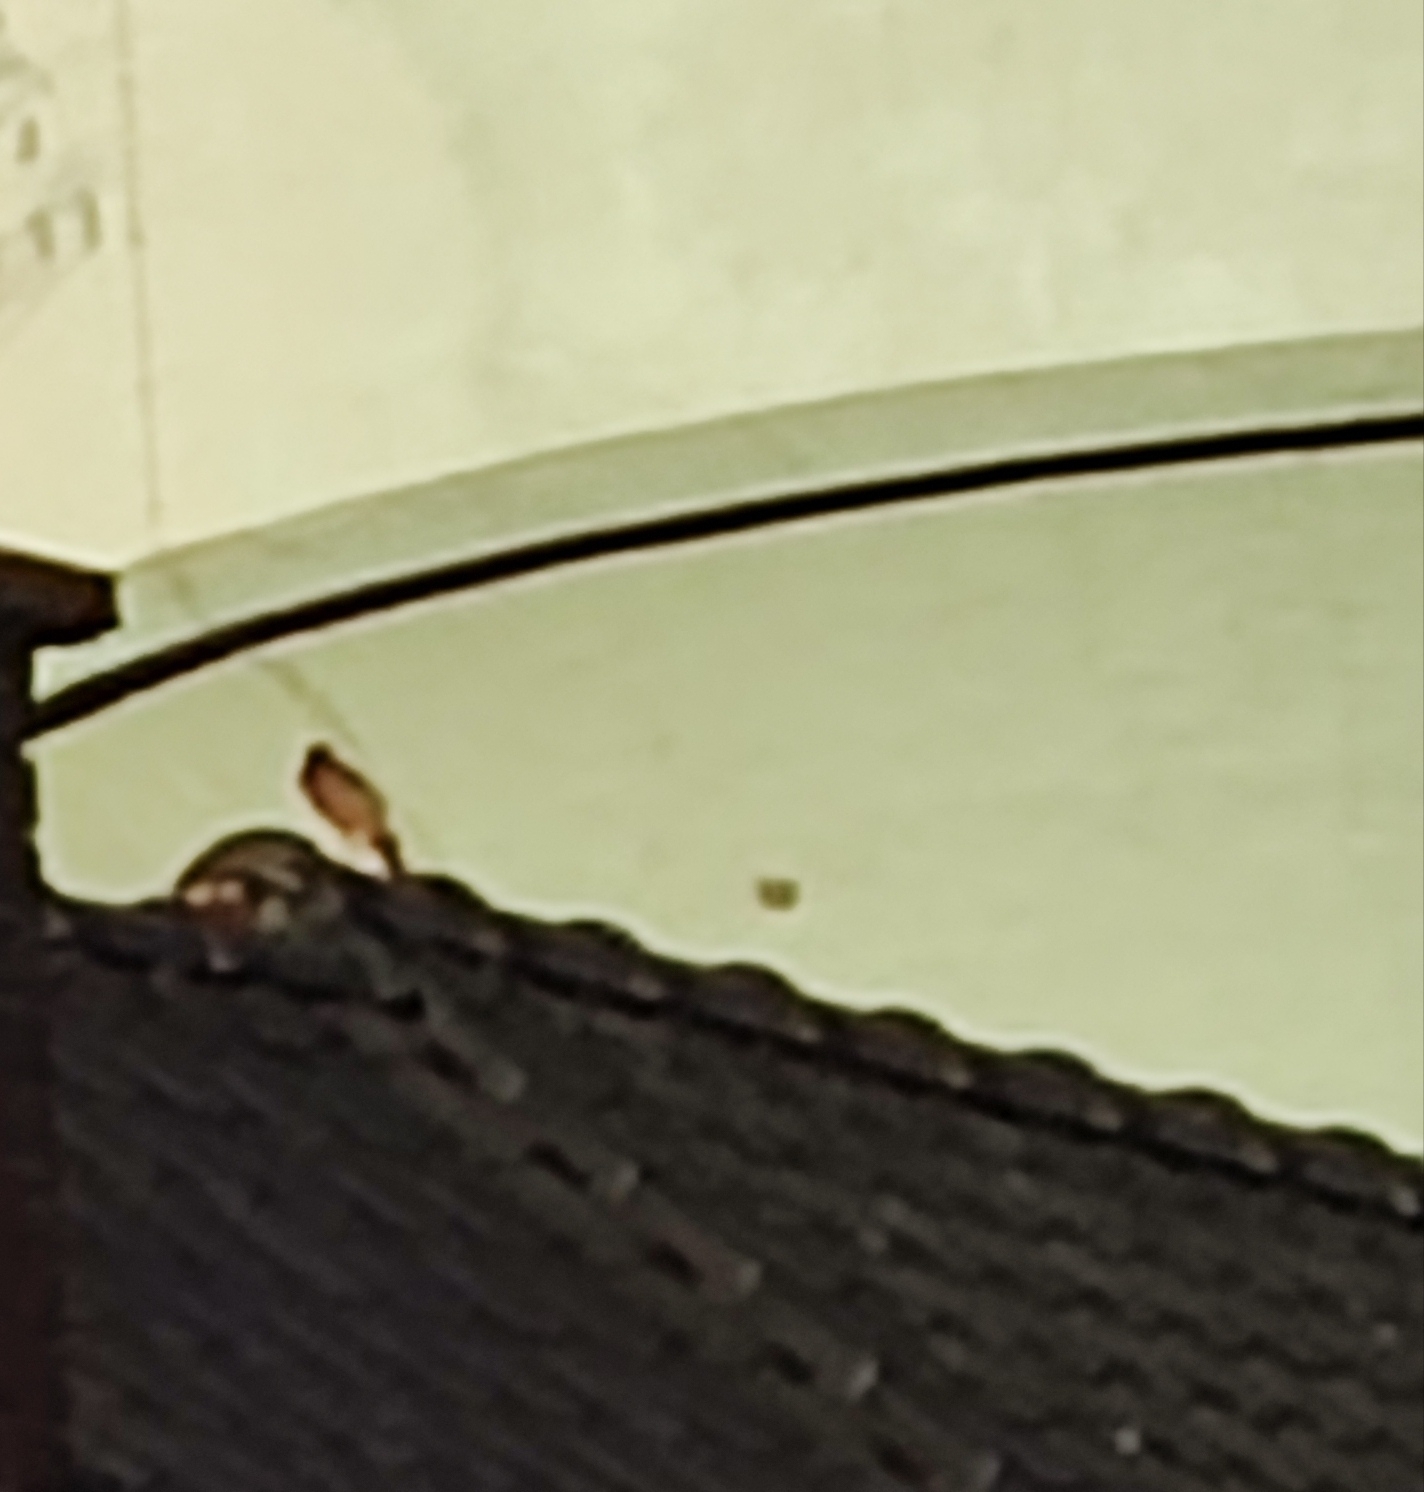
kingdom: Animalia
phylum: Chordata
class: Aves
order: Falconiformes
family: Falconidae
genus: Falco
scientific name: Falco tinnunculus
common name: Common kestrel
